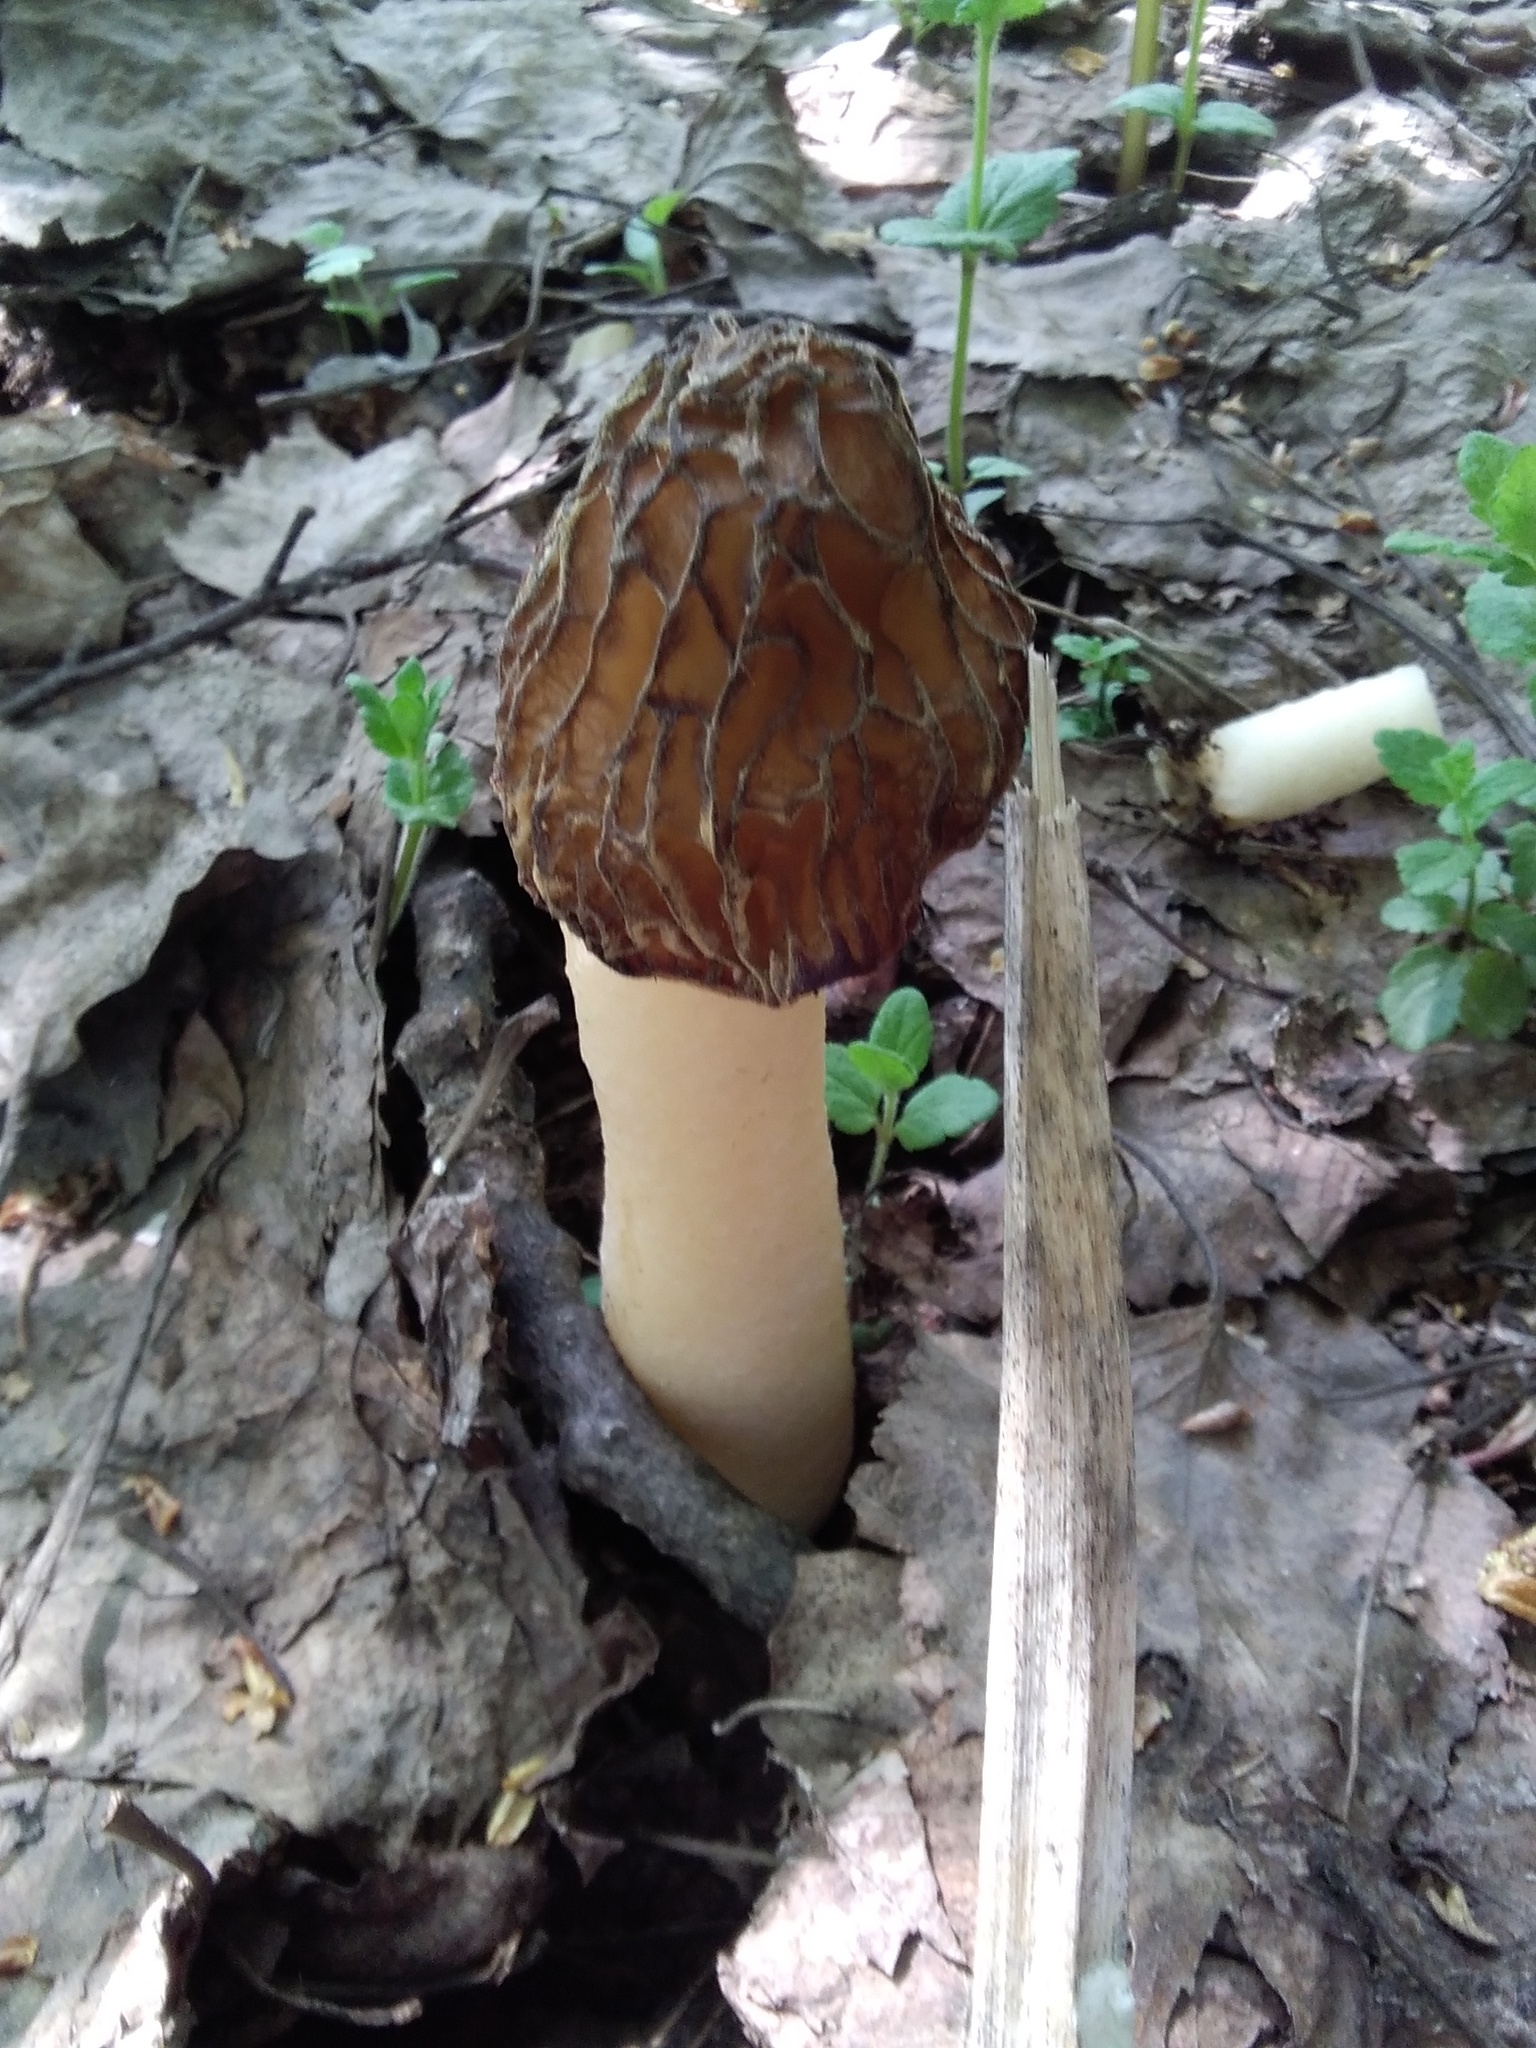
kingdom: Fungi
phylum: Ascomycota
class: Pezizomycetes
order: Pezizales
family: Morchellaceae
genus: Verpa
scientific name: Verpa bohemica
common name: Wrinkled thimble morel
